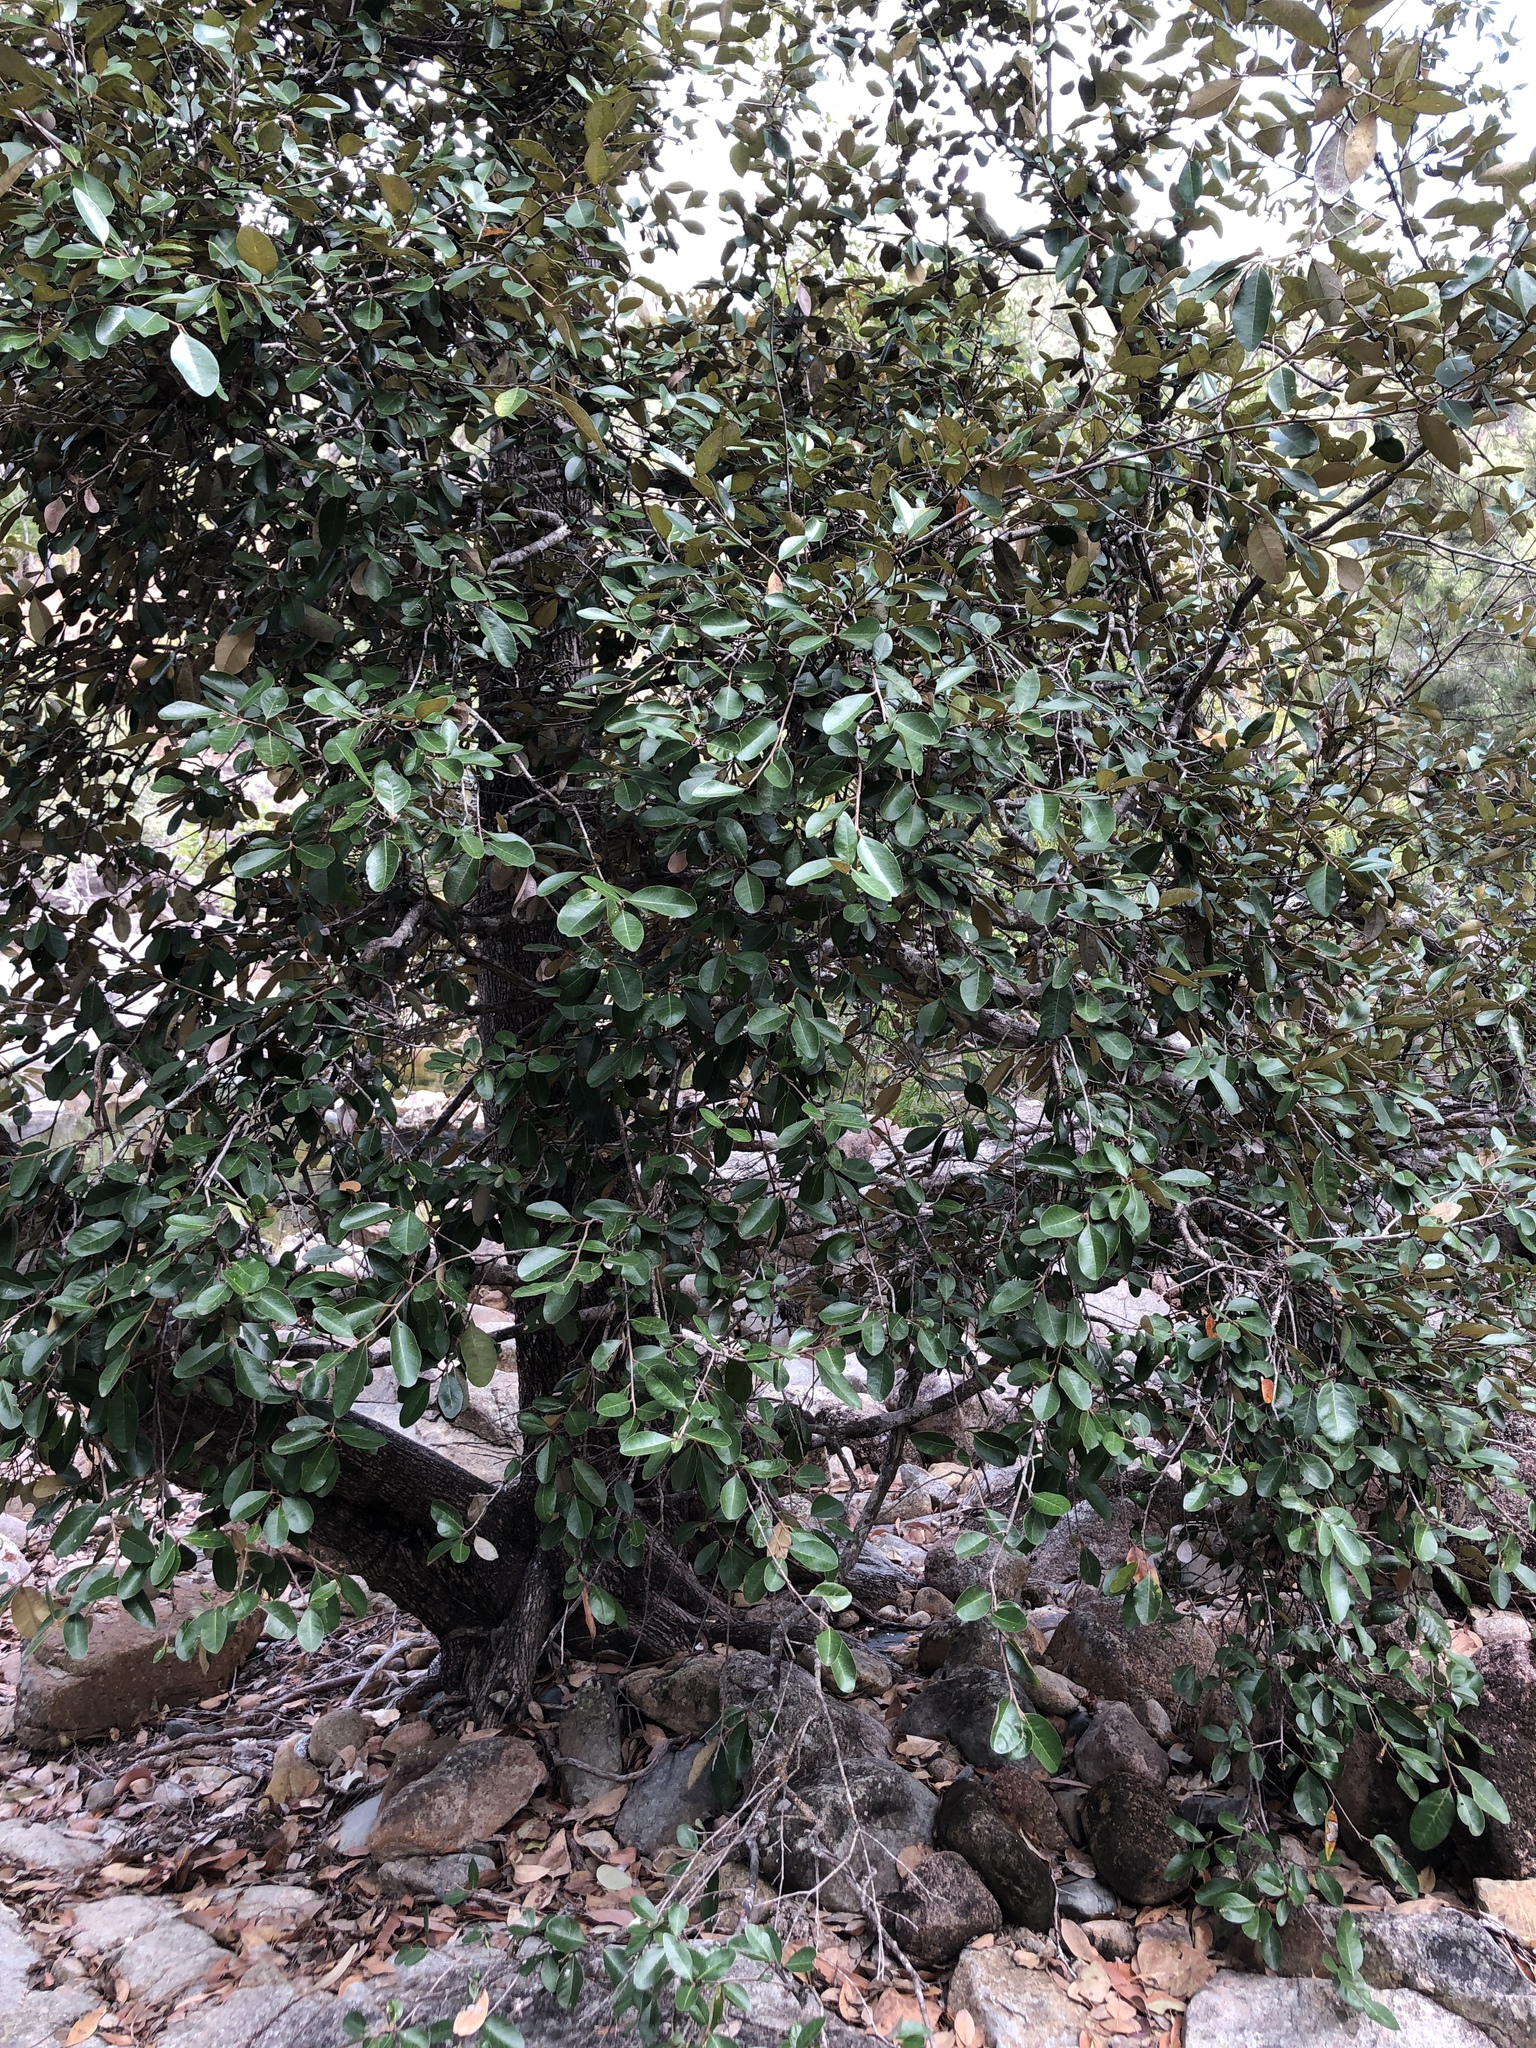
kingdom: Plantae
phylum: Tracheophyta
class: Magnoliopsida
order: Ericales
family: Sapotaceae
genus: Sersalisia
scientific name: Sersalisia sericea
